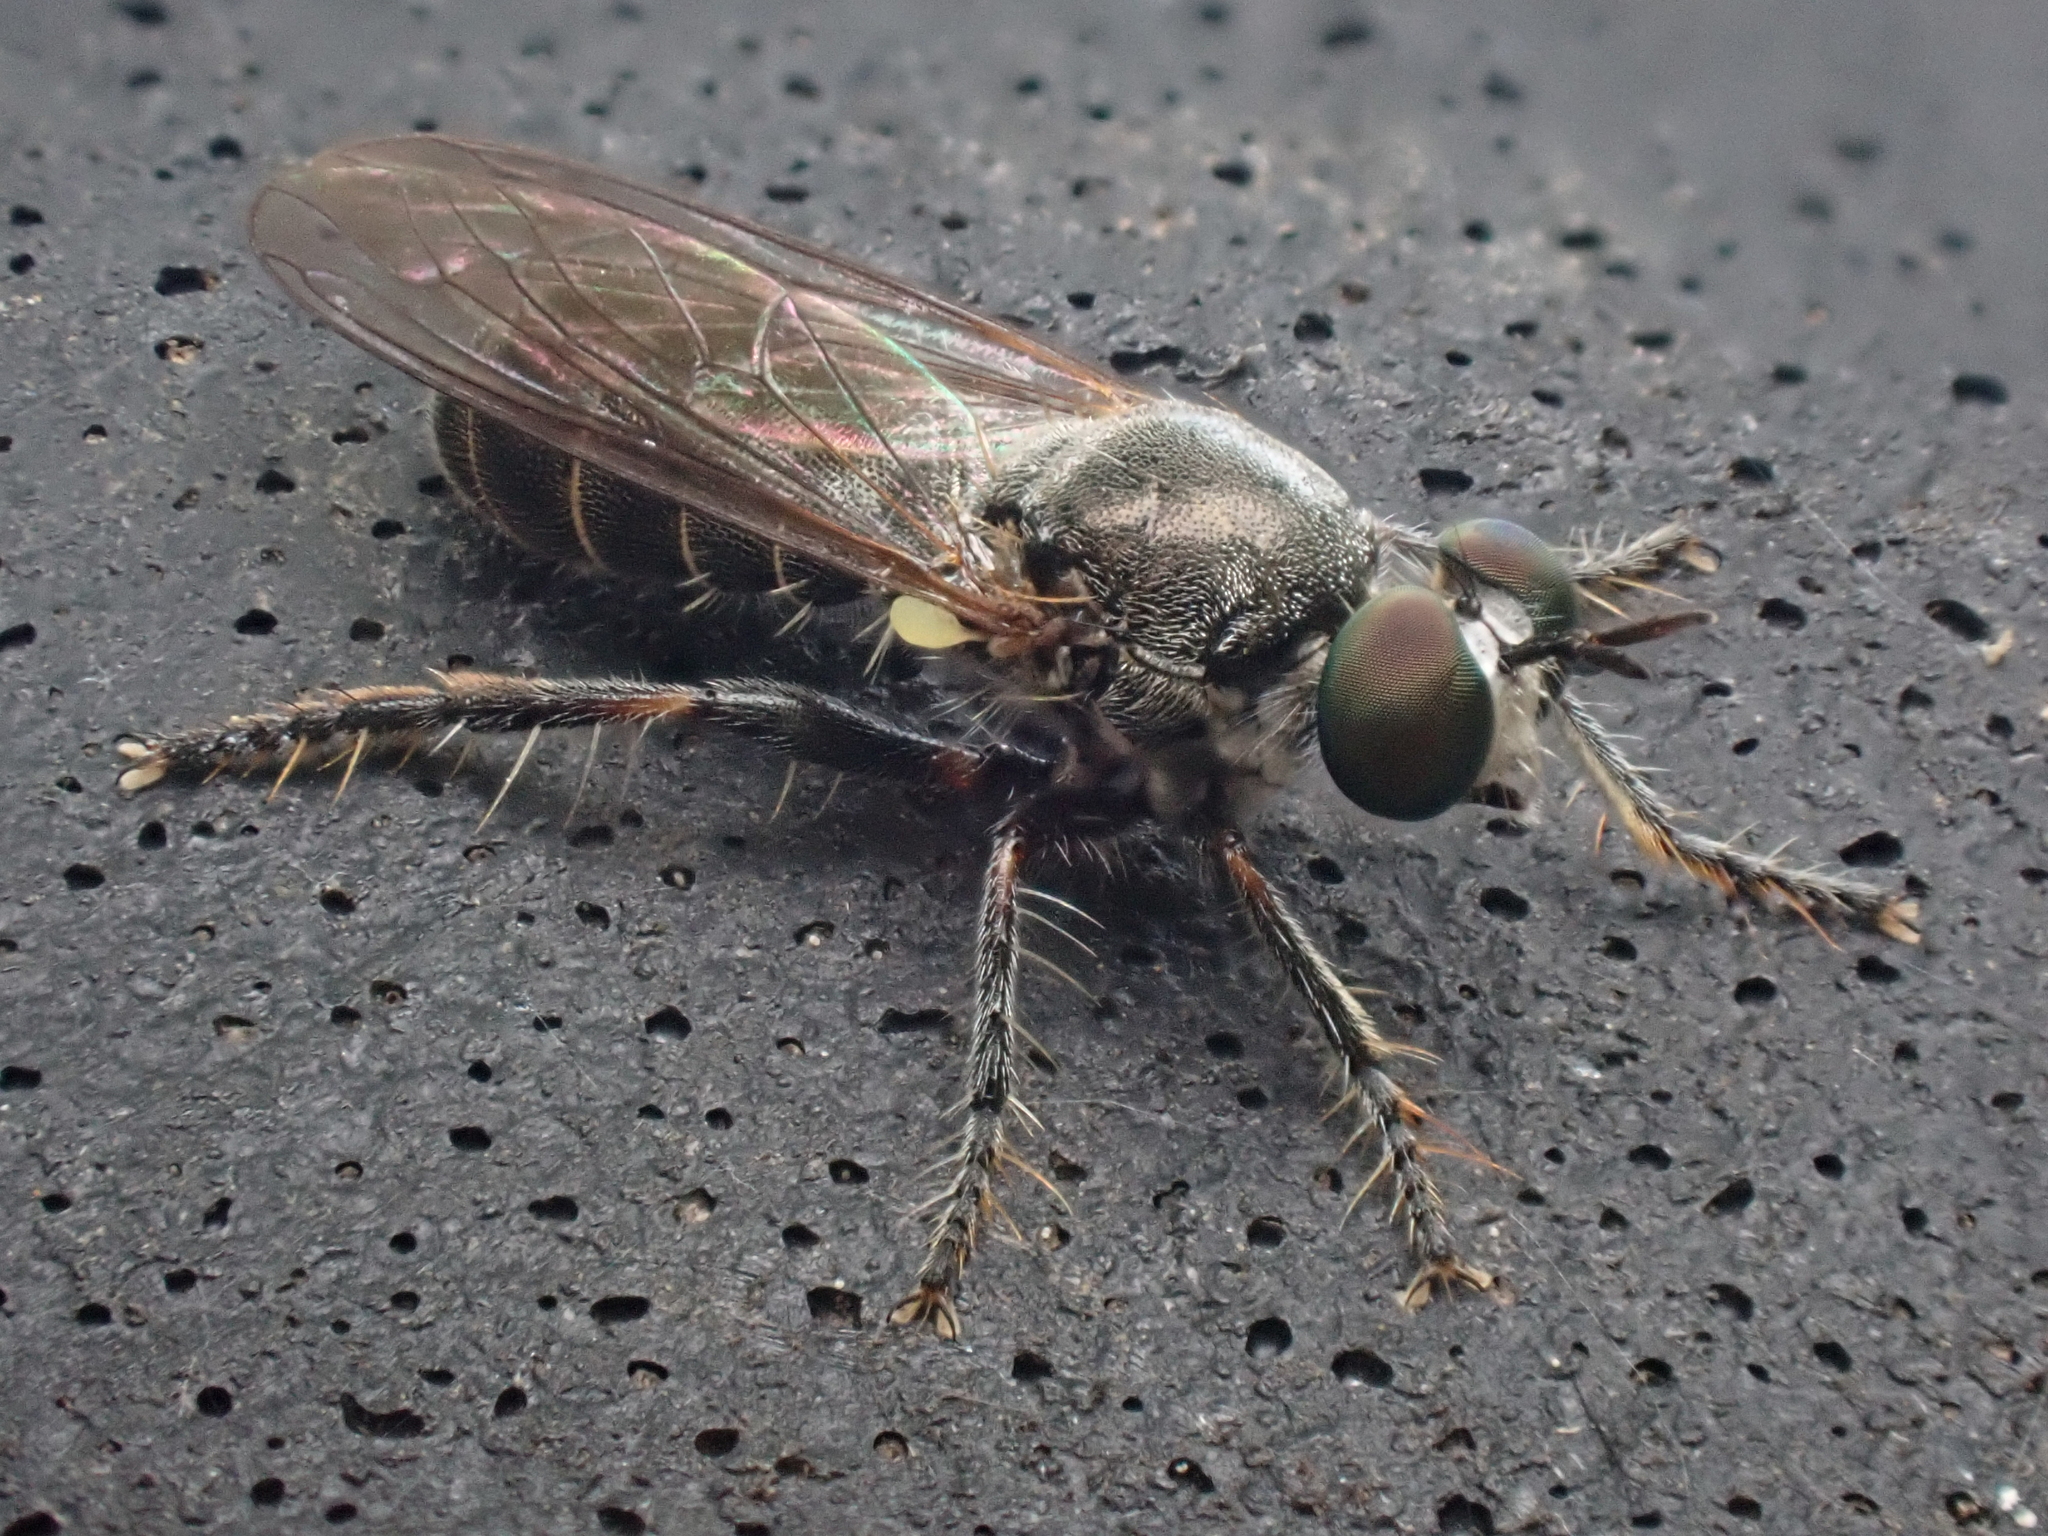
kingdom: Animalia
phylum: Arthropoda
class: Insecta
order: Diptera
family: Asilidae
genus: Atomosia
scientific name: Atomosia puella
